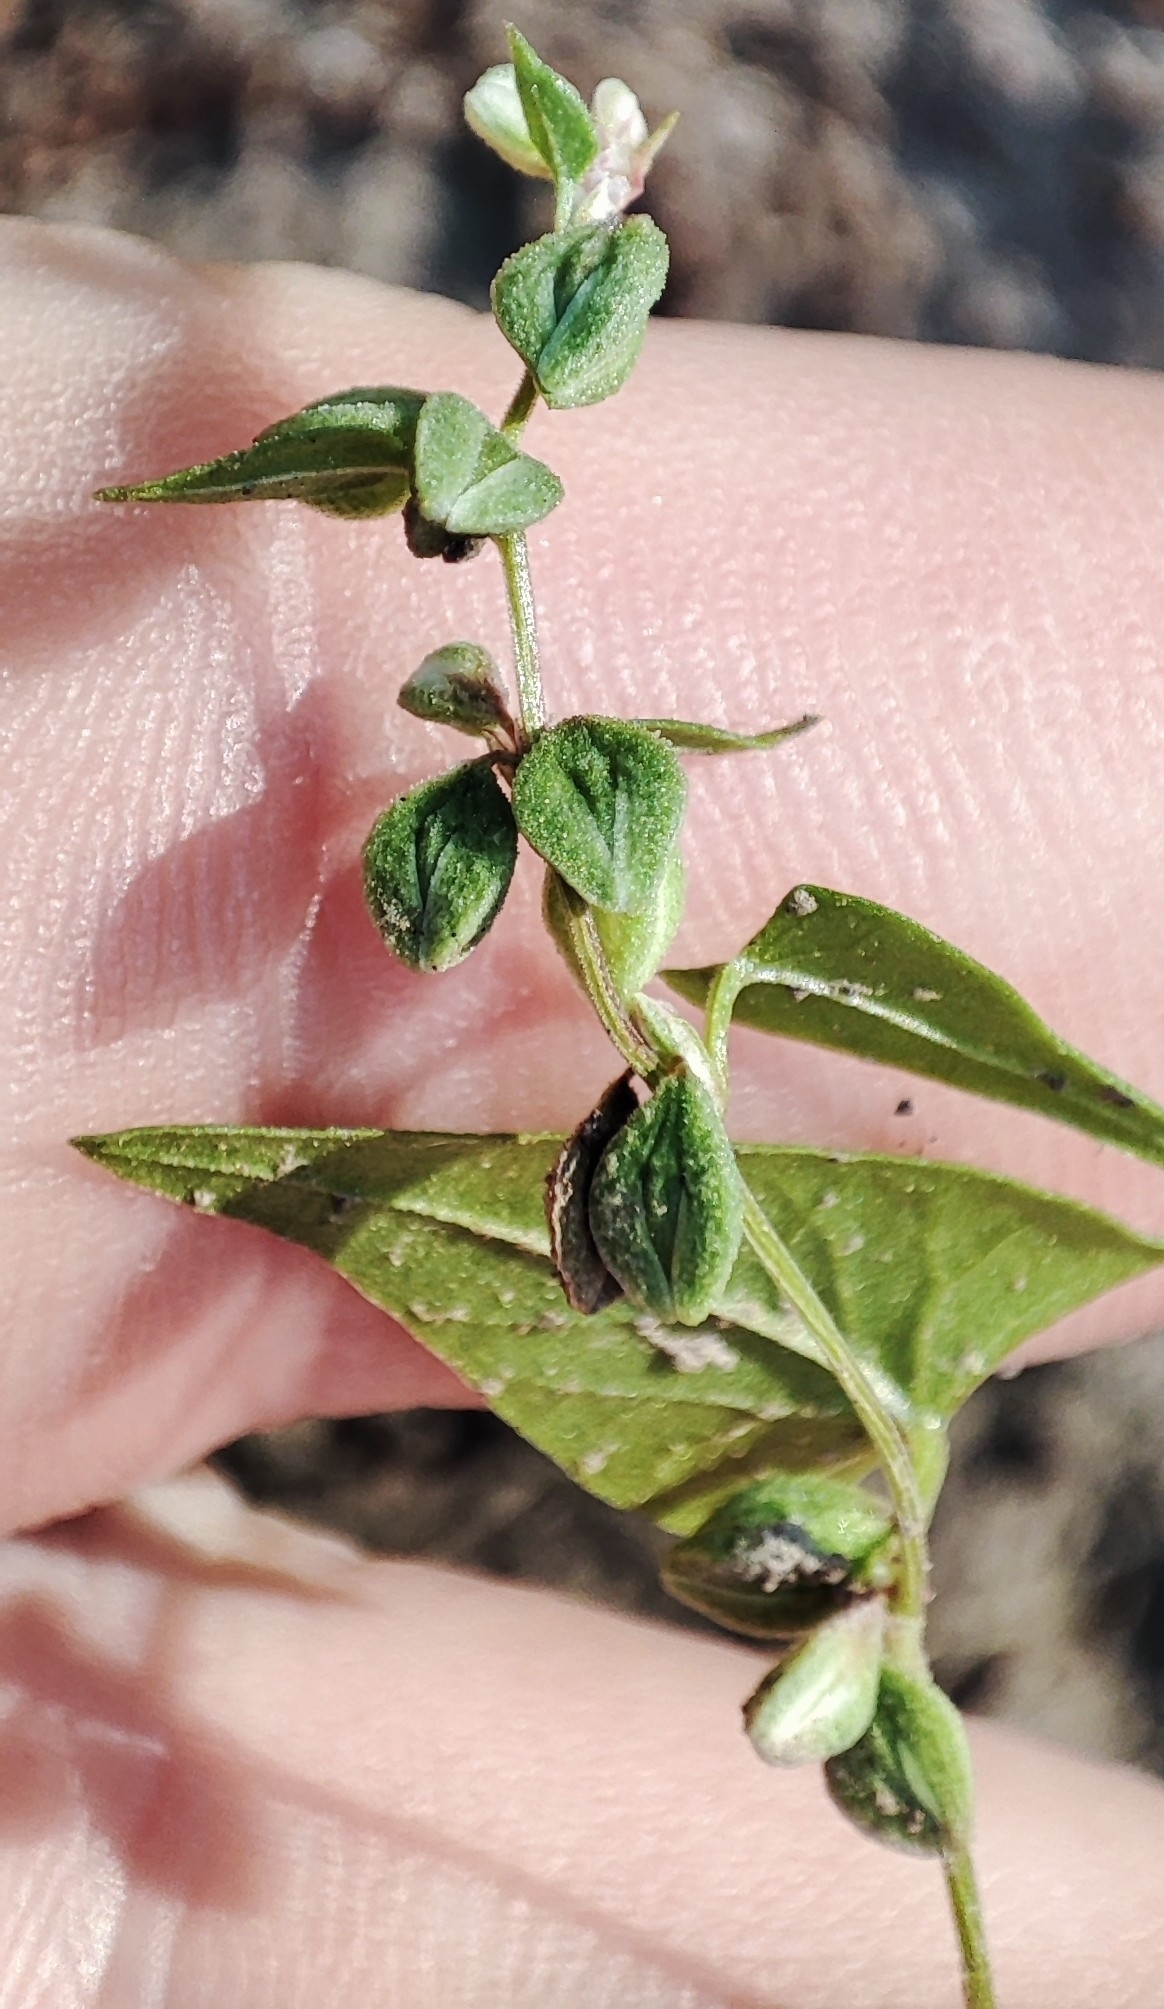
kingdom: Plantae
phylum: Tracheophyta
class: Magnoliopsida
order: Caryophyllales
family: Polygonaceae
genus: Fallopia
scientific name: Fallopia convolvulus
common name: Black bindweed
